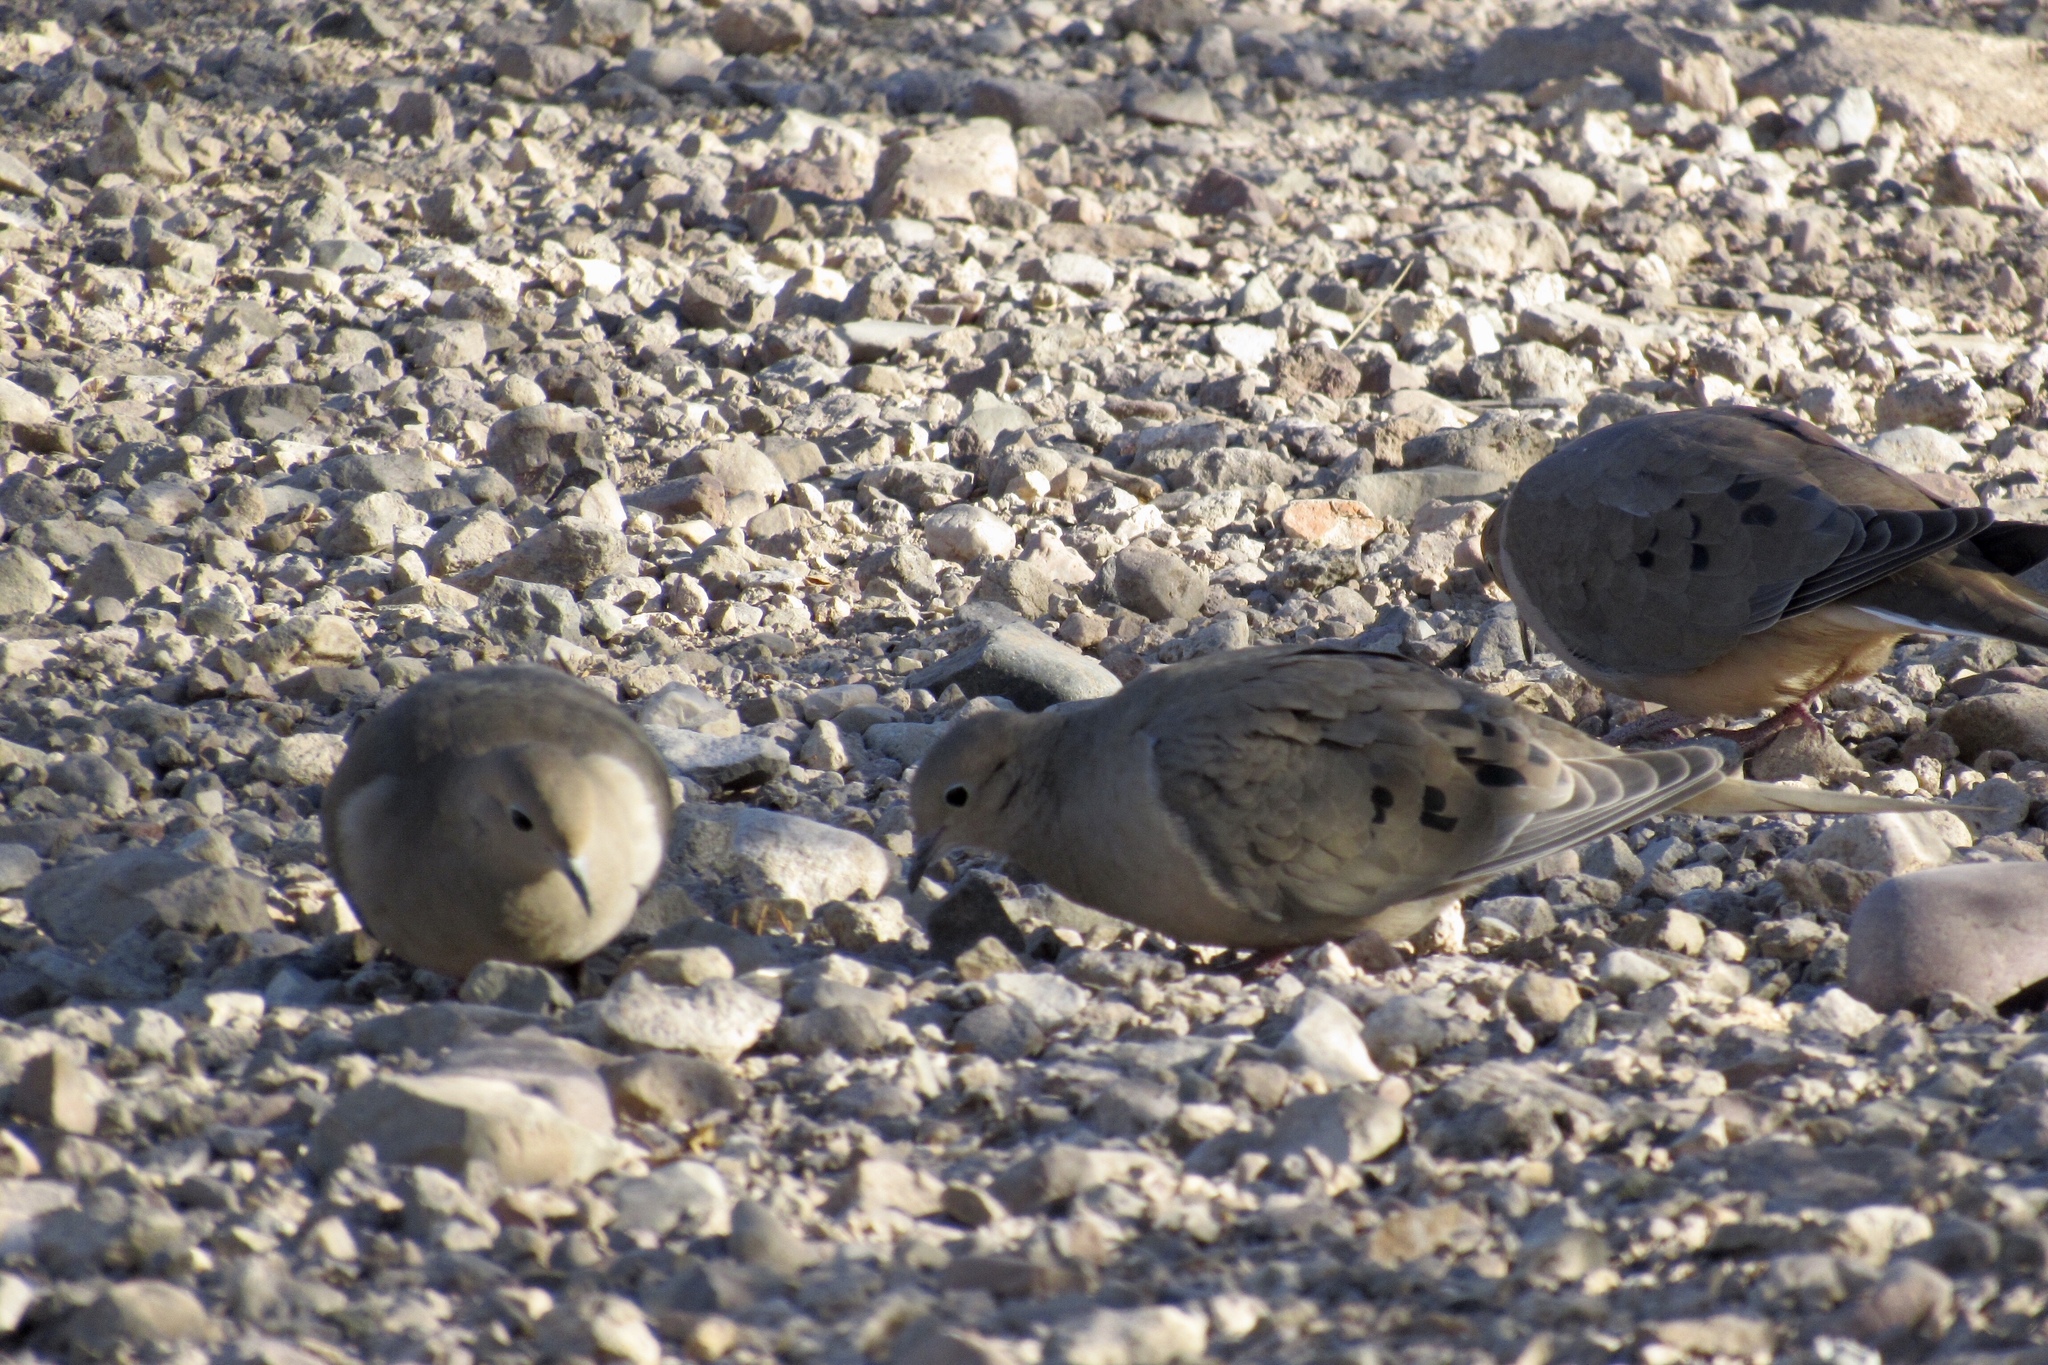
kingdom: Animalia
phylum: Chordata
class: Aves
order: Columbiformes
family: Columbidae
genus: Zenaida
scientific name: Zenaida macroura
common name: Mourning dove
